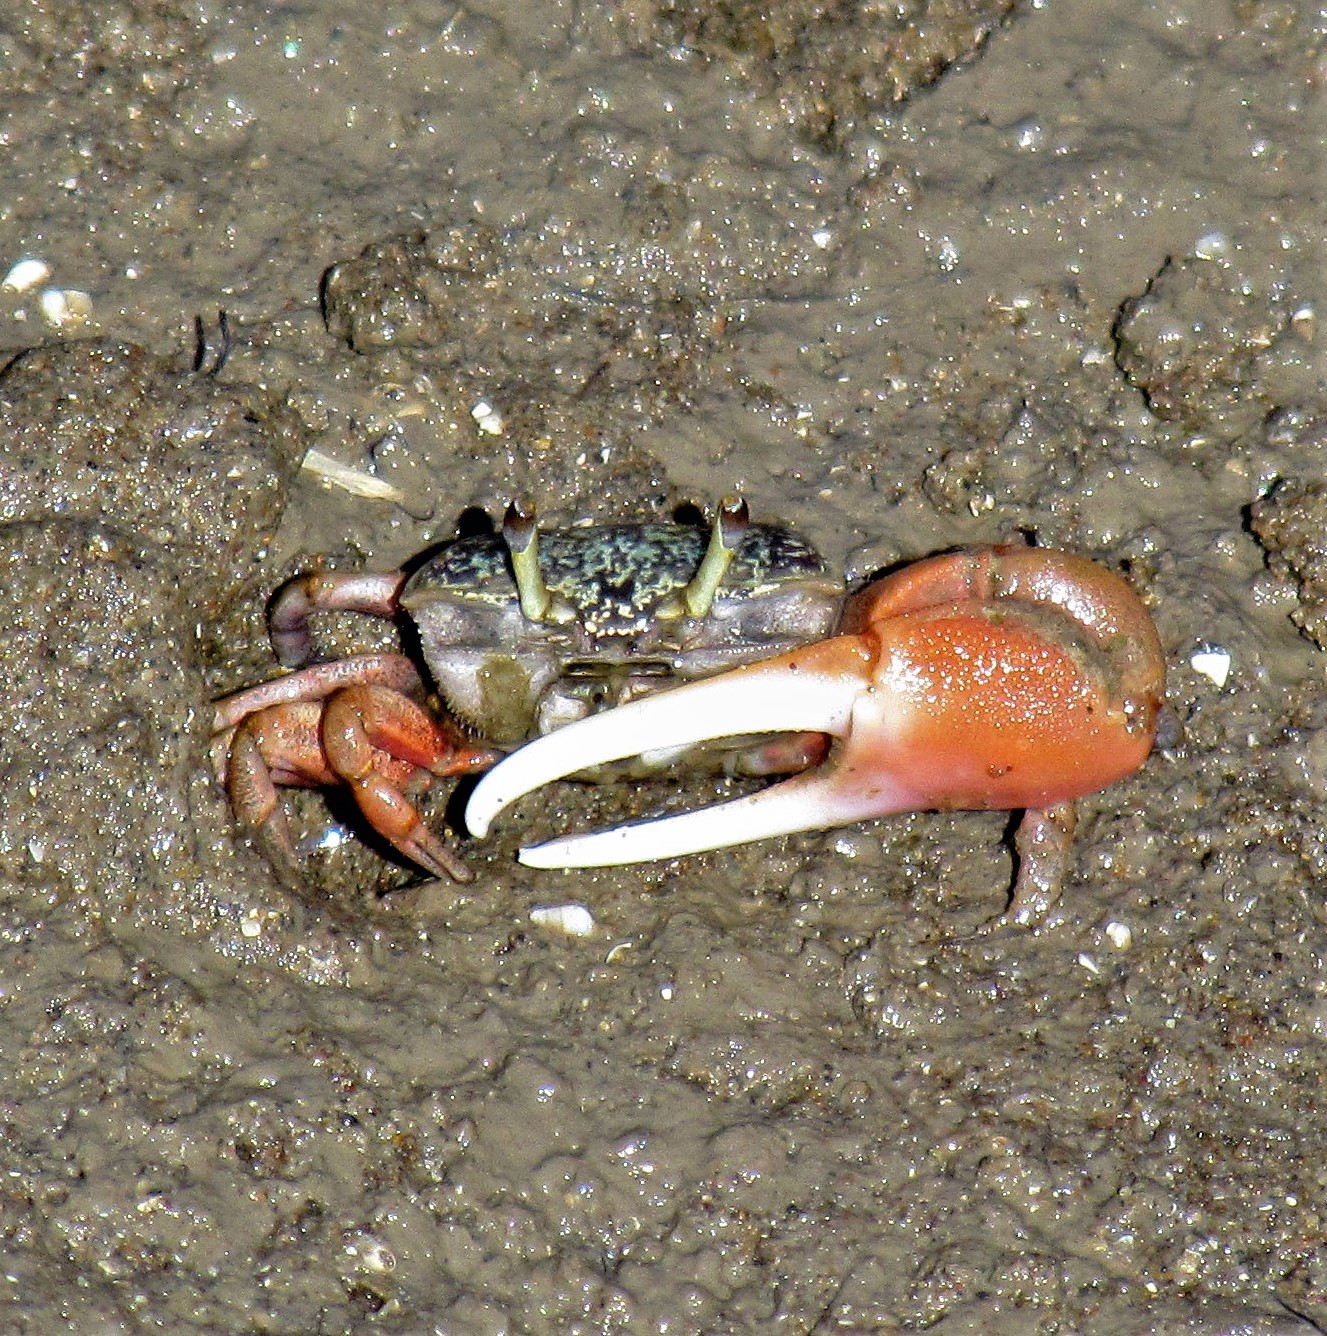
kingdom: Animalia
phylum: Arthropoda
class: Malacostraca
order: Decapoda
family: Ocypodidae
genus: Leptuca
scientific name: Leptuca uruguayensis
